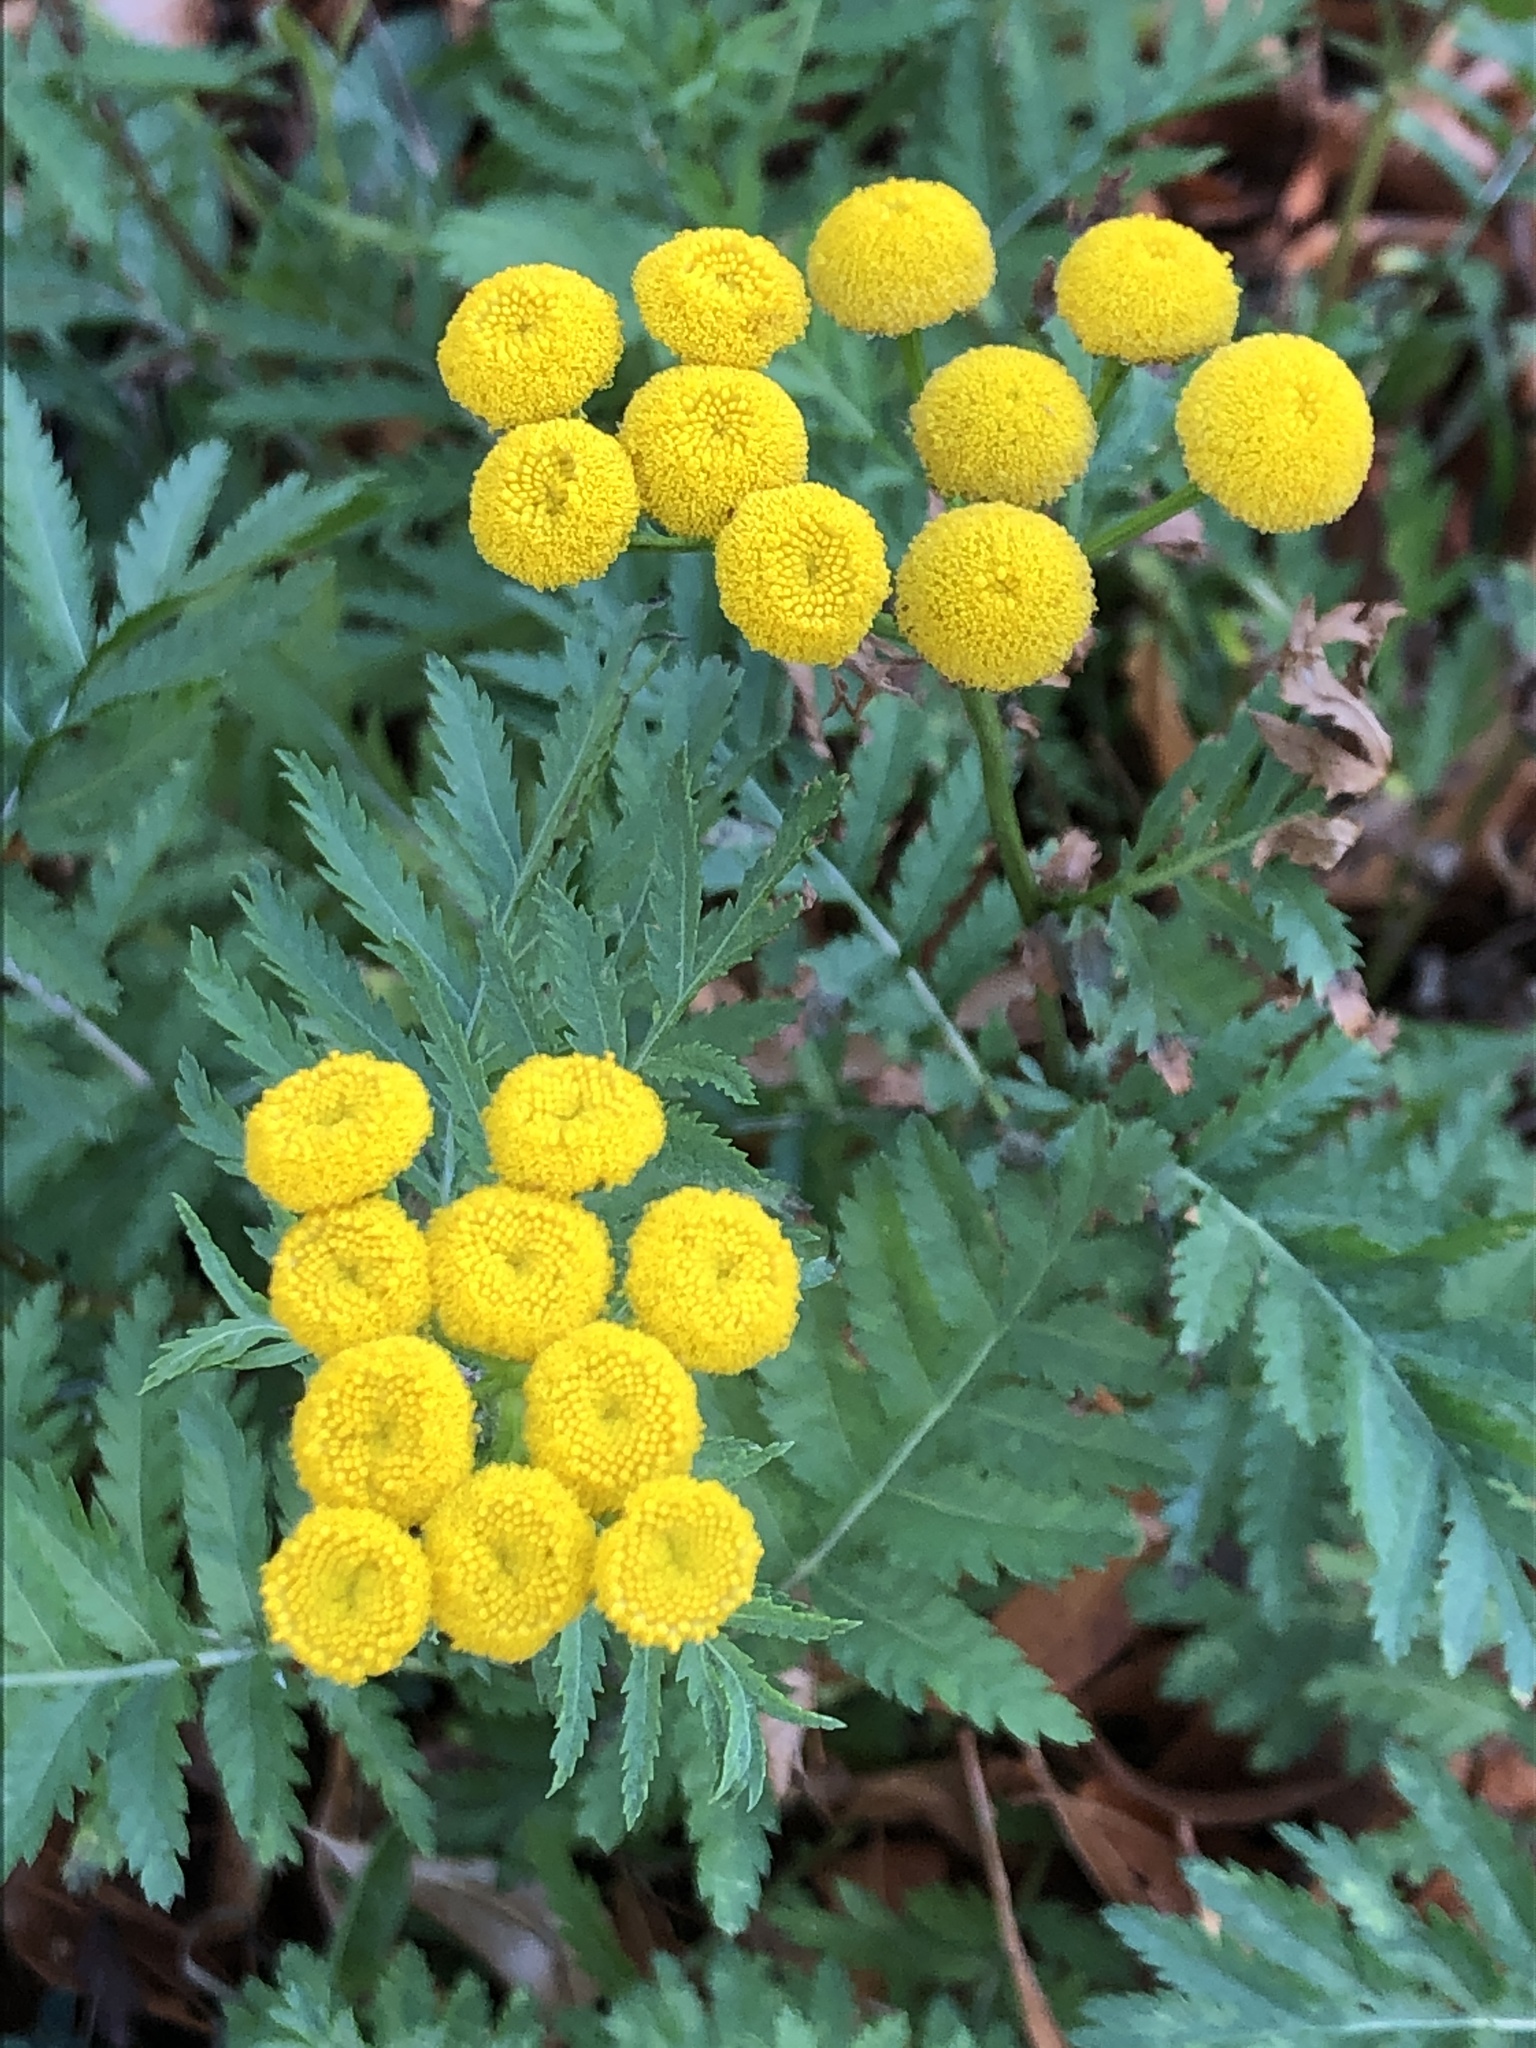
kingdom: Plantae
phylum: Tracheophyta
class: Magnoliopsida
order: Asterales
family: Asteraceae
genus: Tanacetum
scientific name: Tanacetum vulgare
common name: Common tansy
